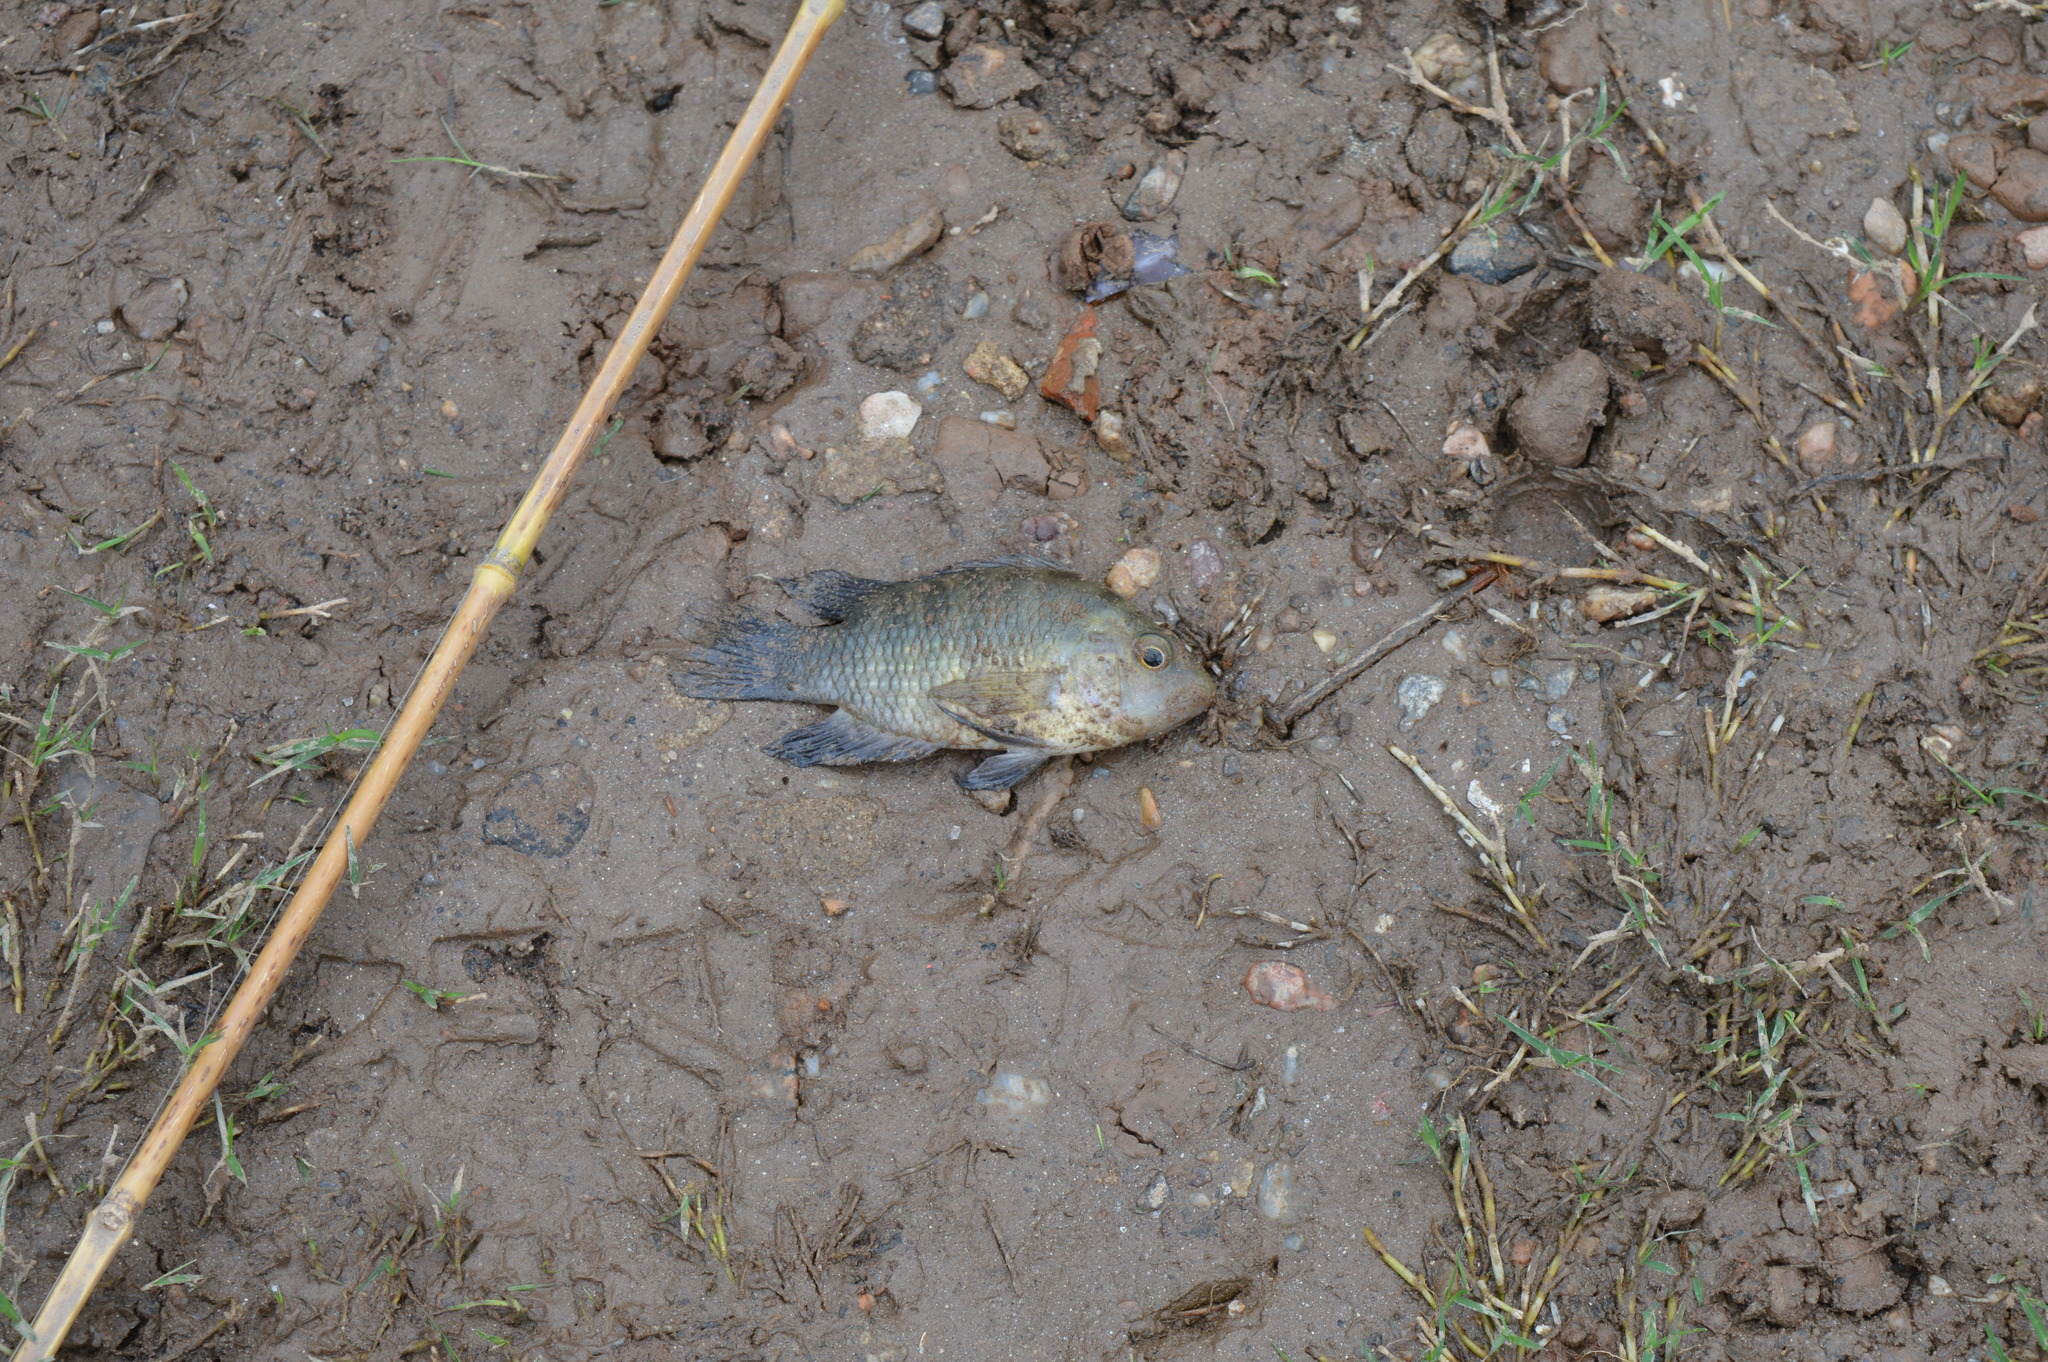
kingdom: Animalia
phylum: Chordata
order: Perciformes
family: Cichlidae
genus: Australoheros
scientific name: Australoheros facetus
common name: Chameleon cichlid
